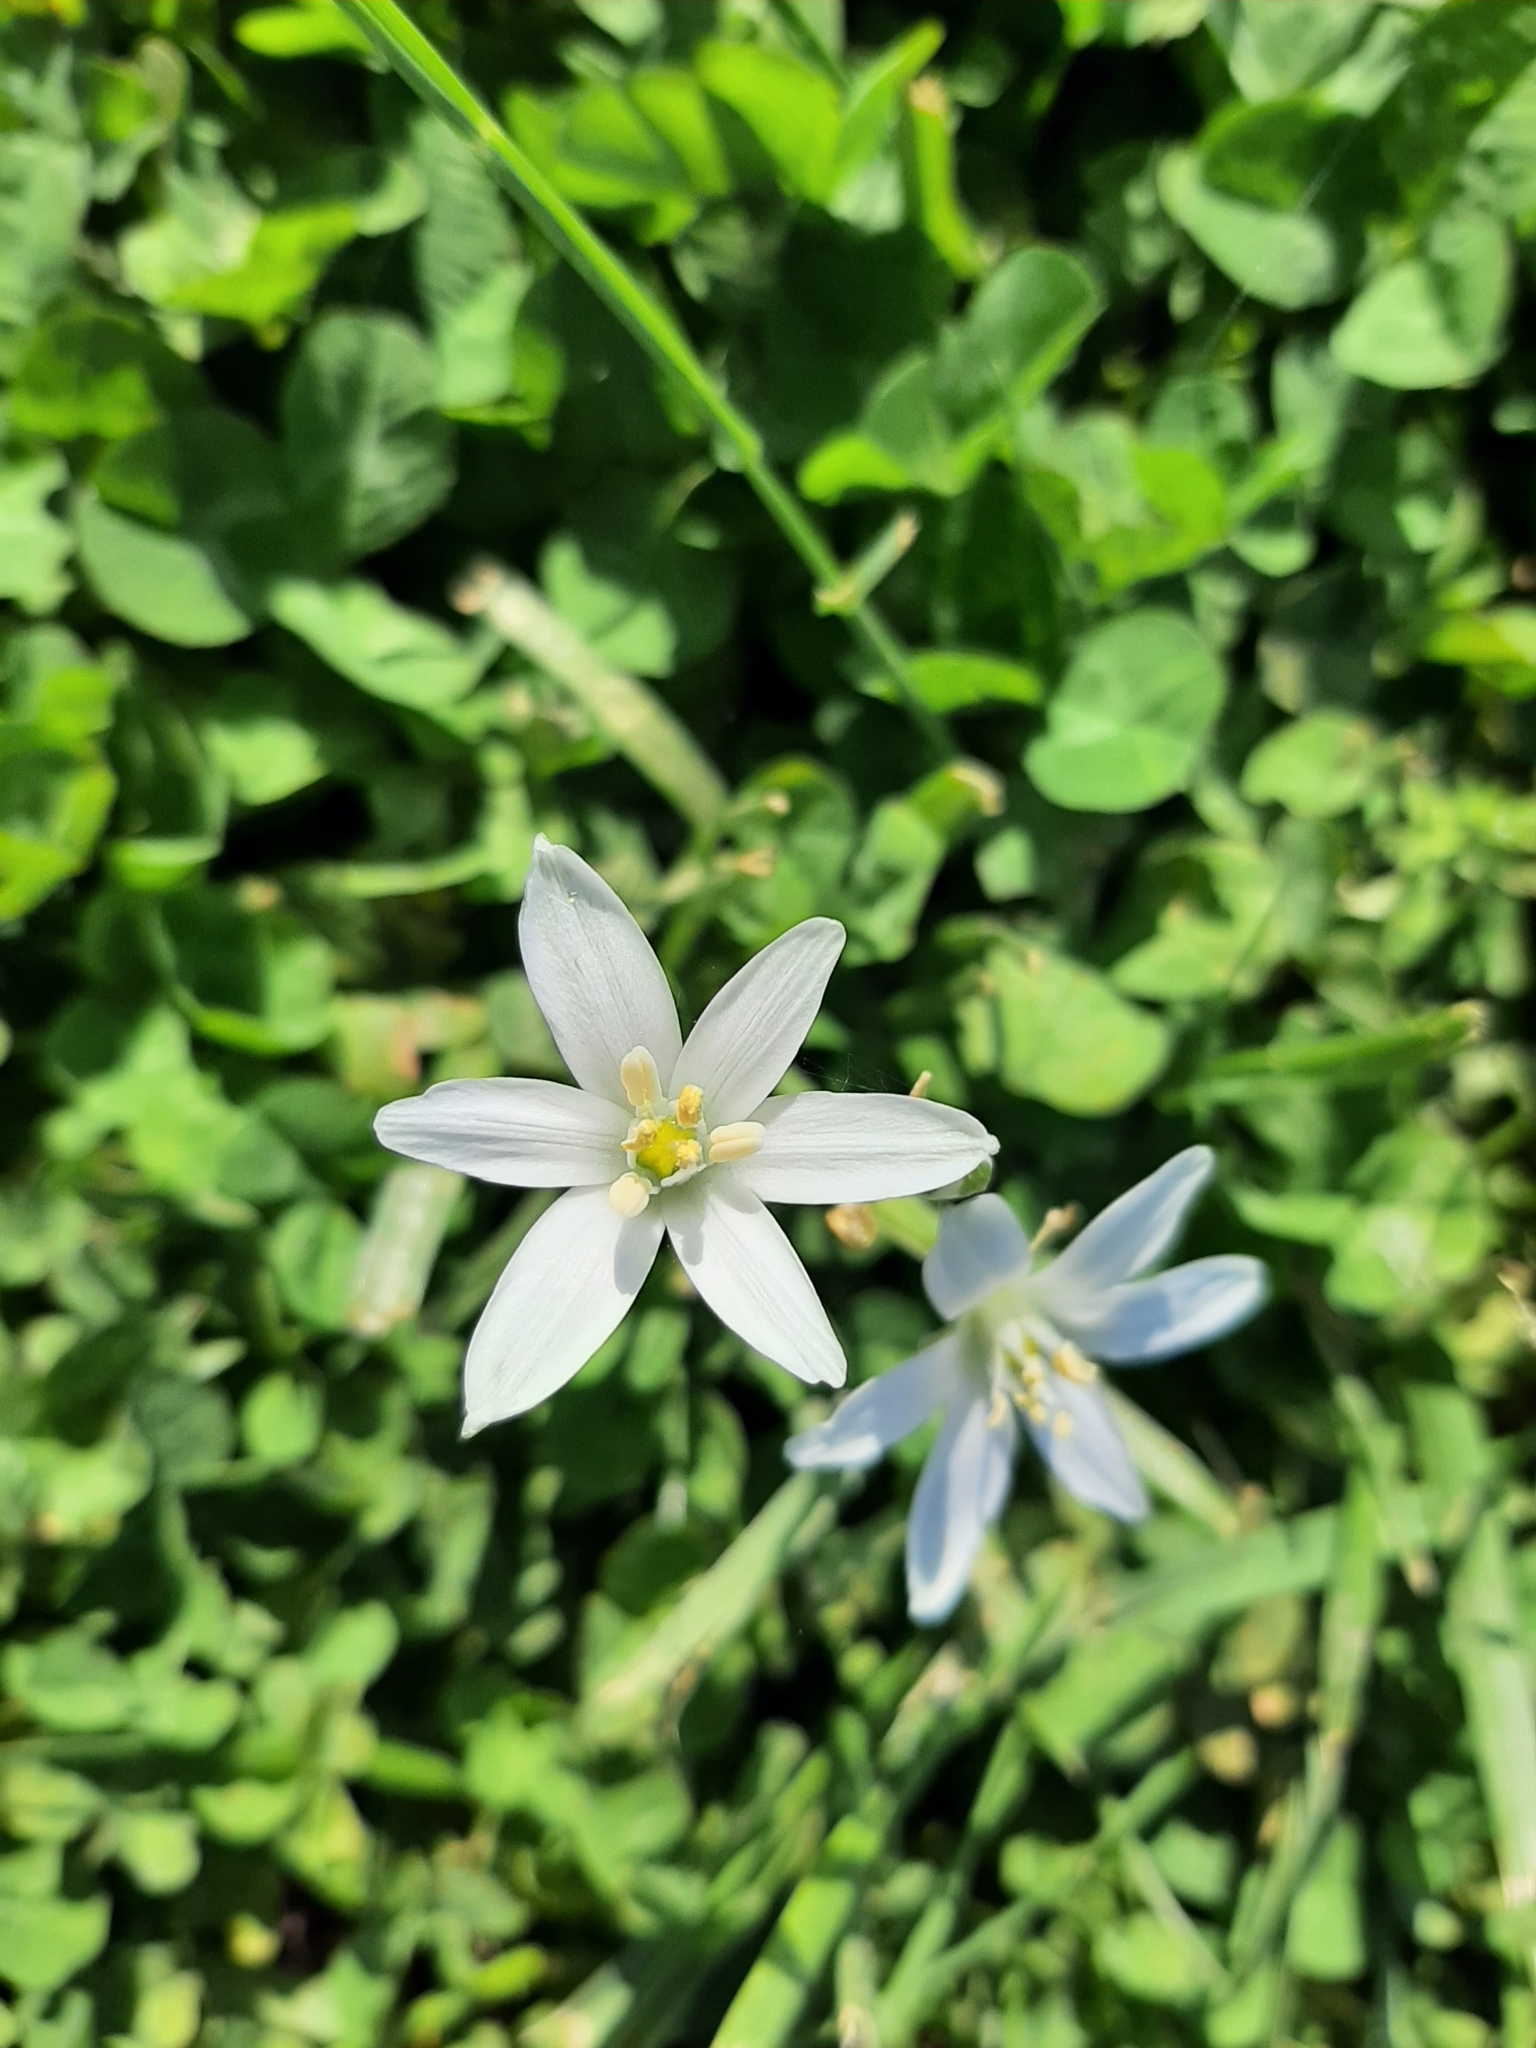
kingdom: Plantae
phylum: Tracheophyta
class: Liliopsida
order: Asparagales
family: Amaryllidaceae
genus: Nothoscordum
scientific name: Nothoscordum bivalve
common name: Crow-poison
